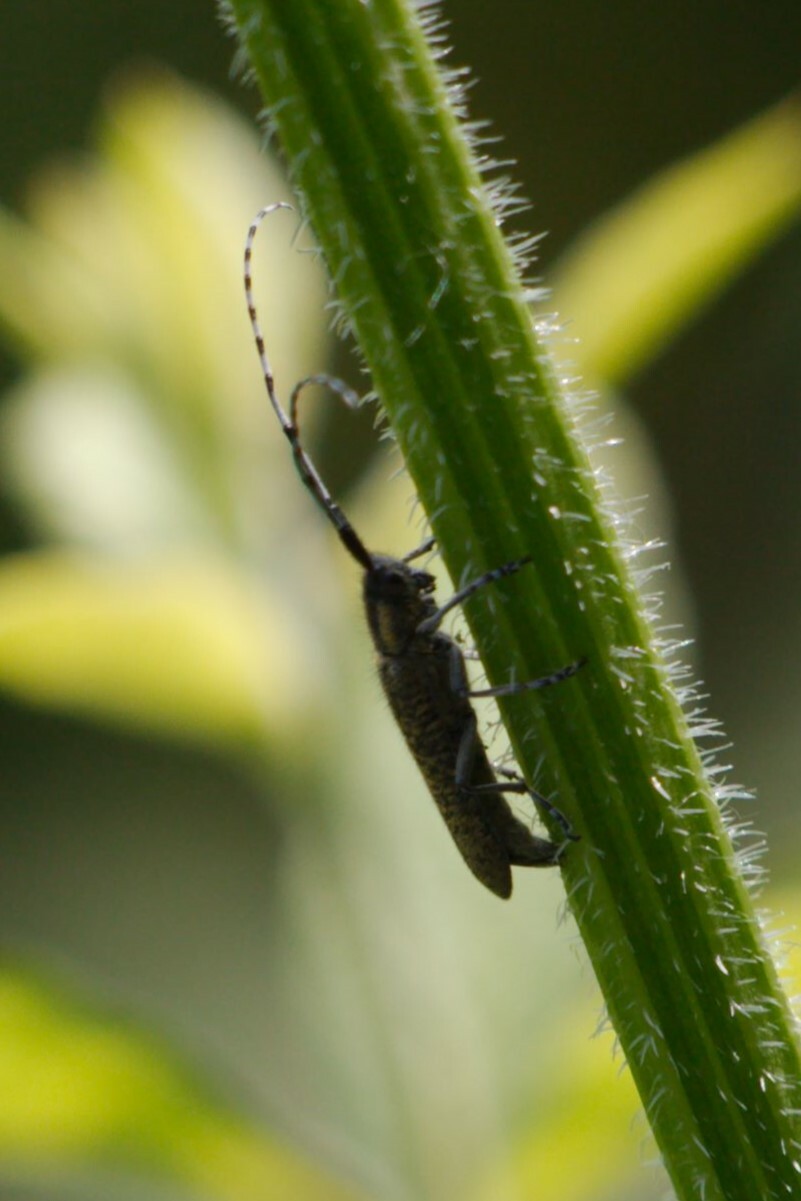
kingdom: Animalia
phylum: Arthropoda
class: Insecta
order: Coleoptera
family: Cerambycidae
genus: Agapanthia
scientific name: Agapanthia villosoviridescens
